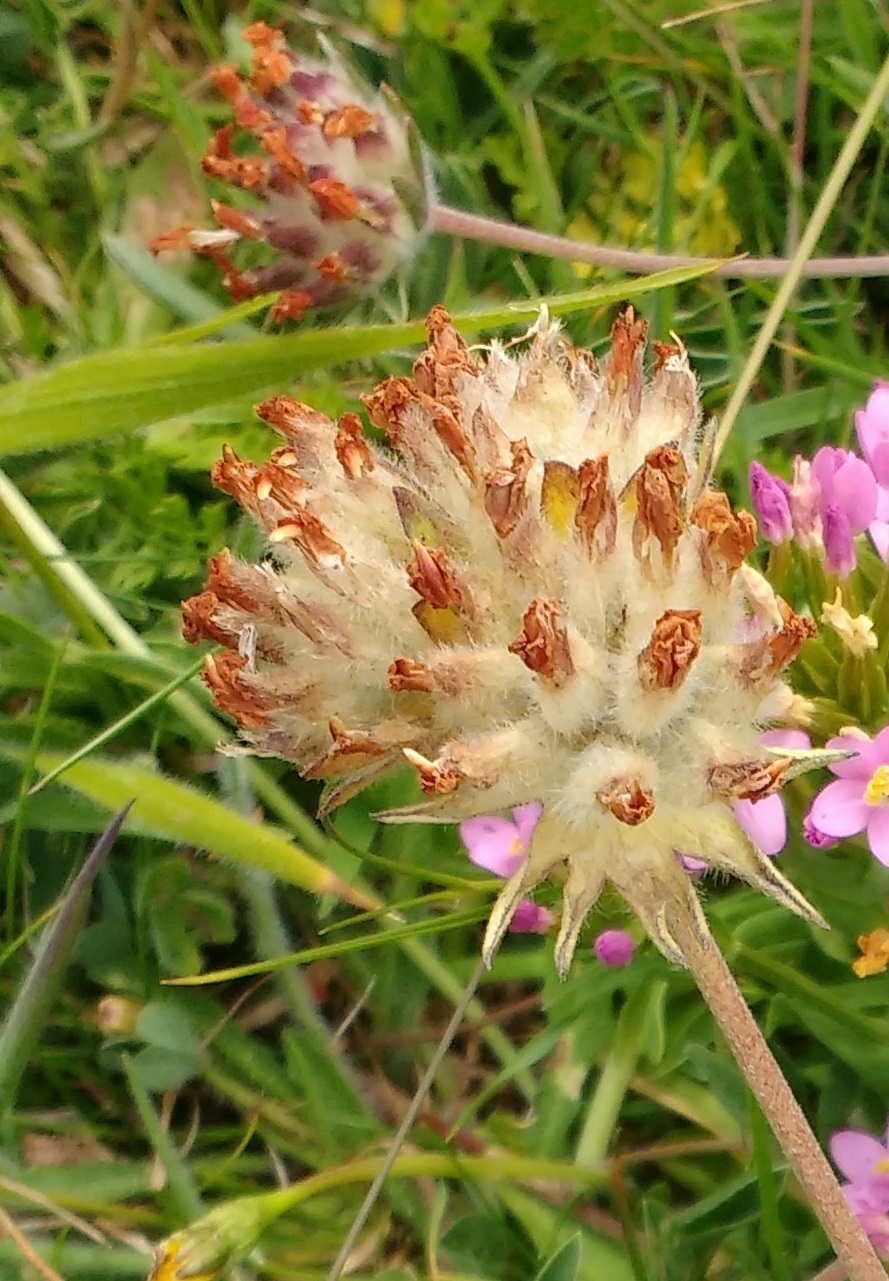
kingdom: Plantae
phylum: Tracheophyta
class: Magnoliopsida
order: Fabales
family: Fabaceae
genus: Anthyllis
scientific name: Anthyllis vulneraria
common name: Kidney vetch
